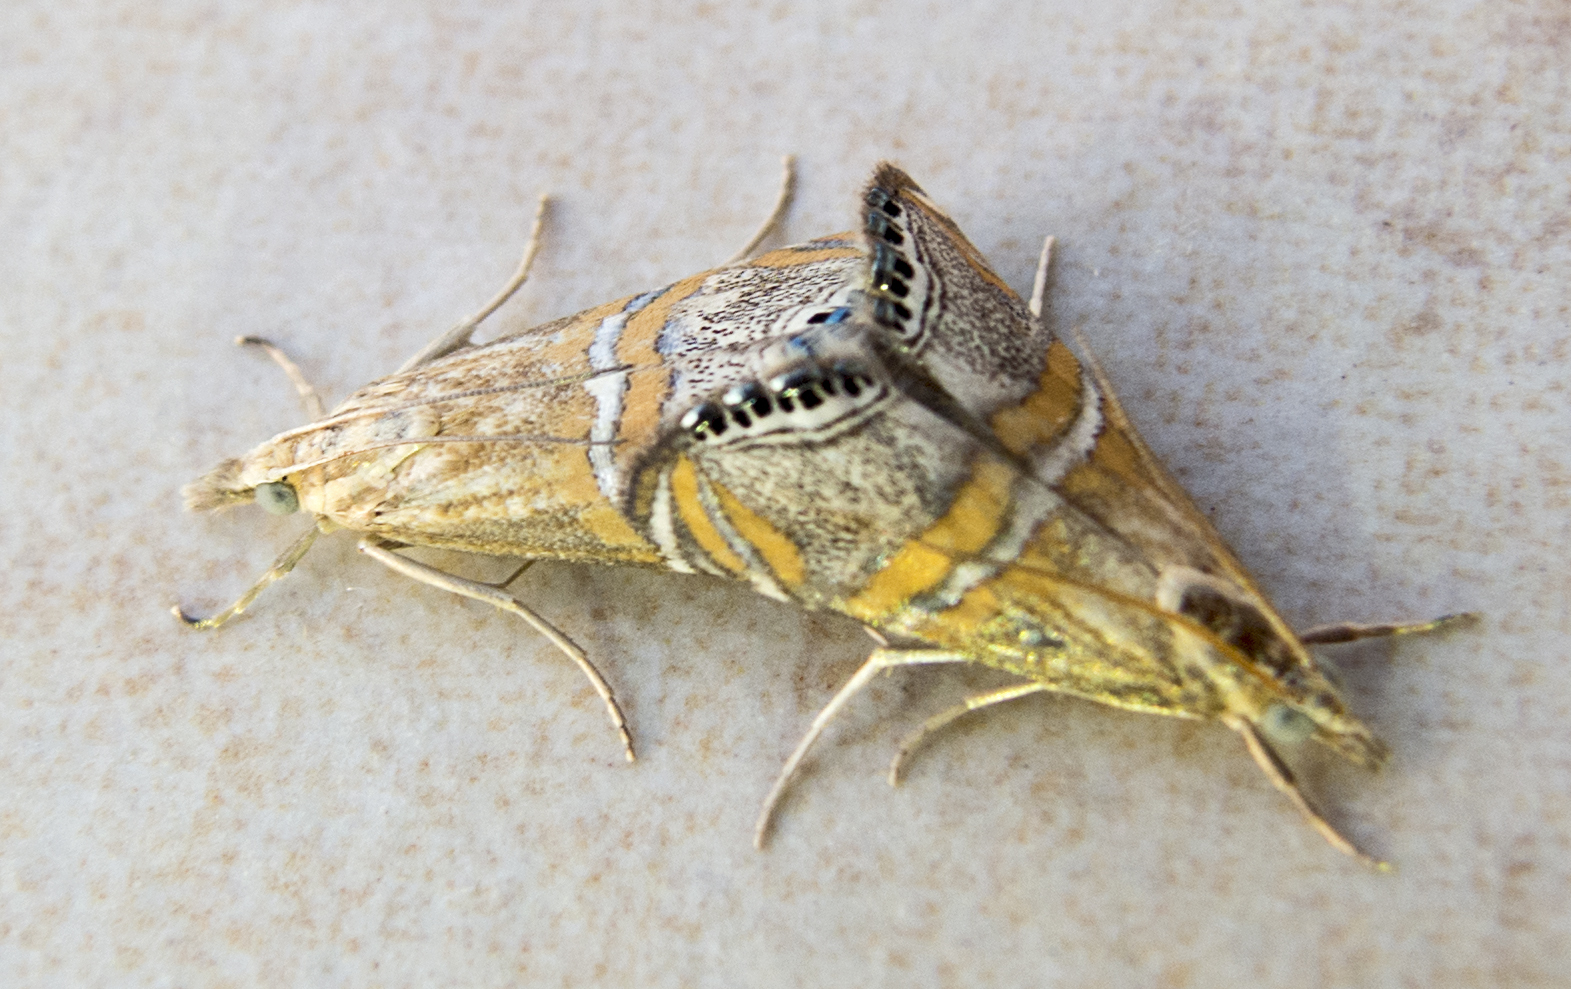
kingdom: Animalia
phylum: Arthropoda
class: Insecta
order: Lepidoptera
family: Crambidae
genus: Euchromius
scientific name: Euchromius bella
